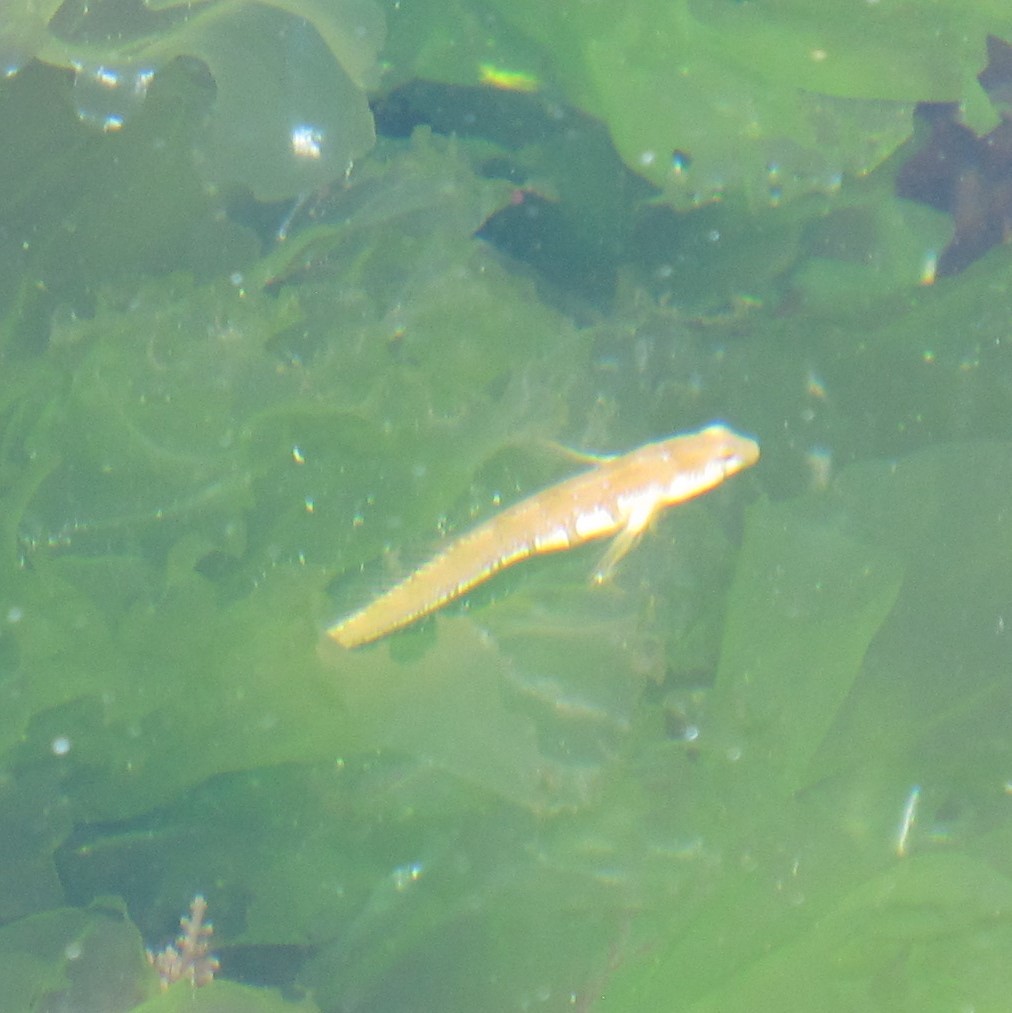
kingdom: Animalia
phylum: Chordata
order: Perciformes
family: Blenniidae
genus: Microlipophrys
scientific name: Microlipophrys dalmatinus
